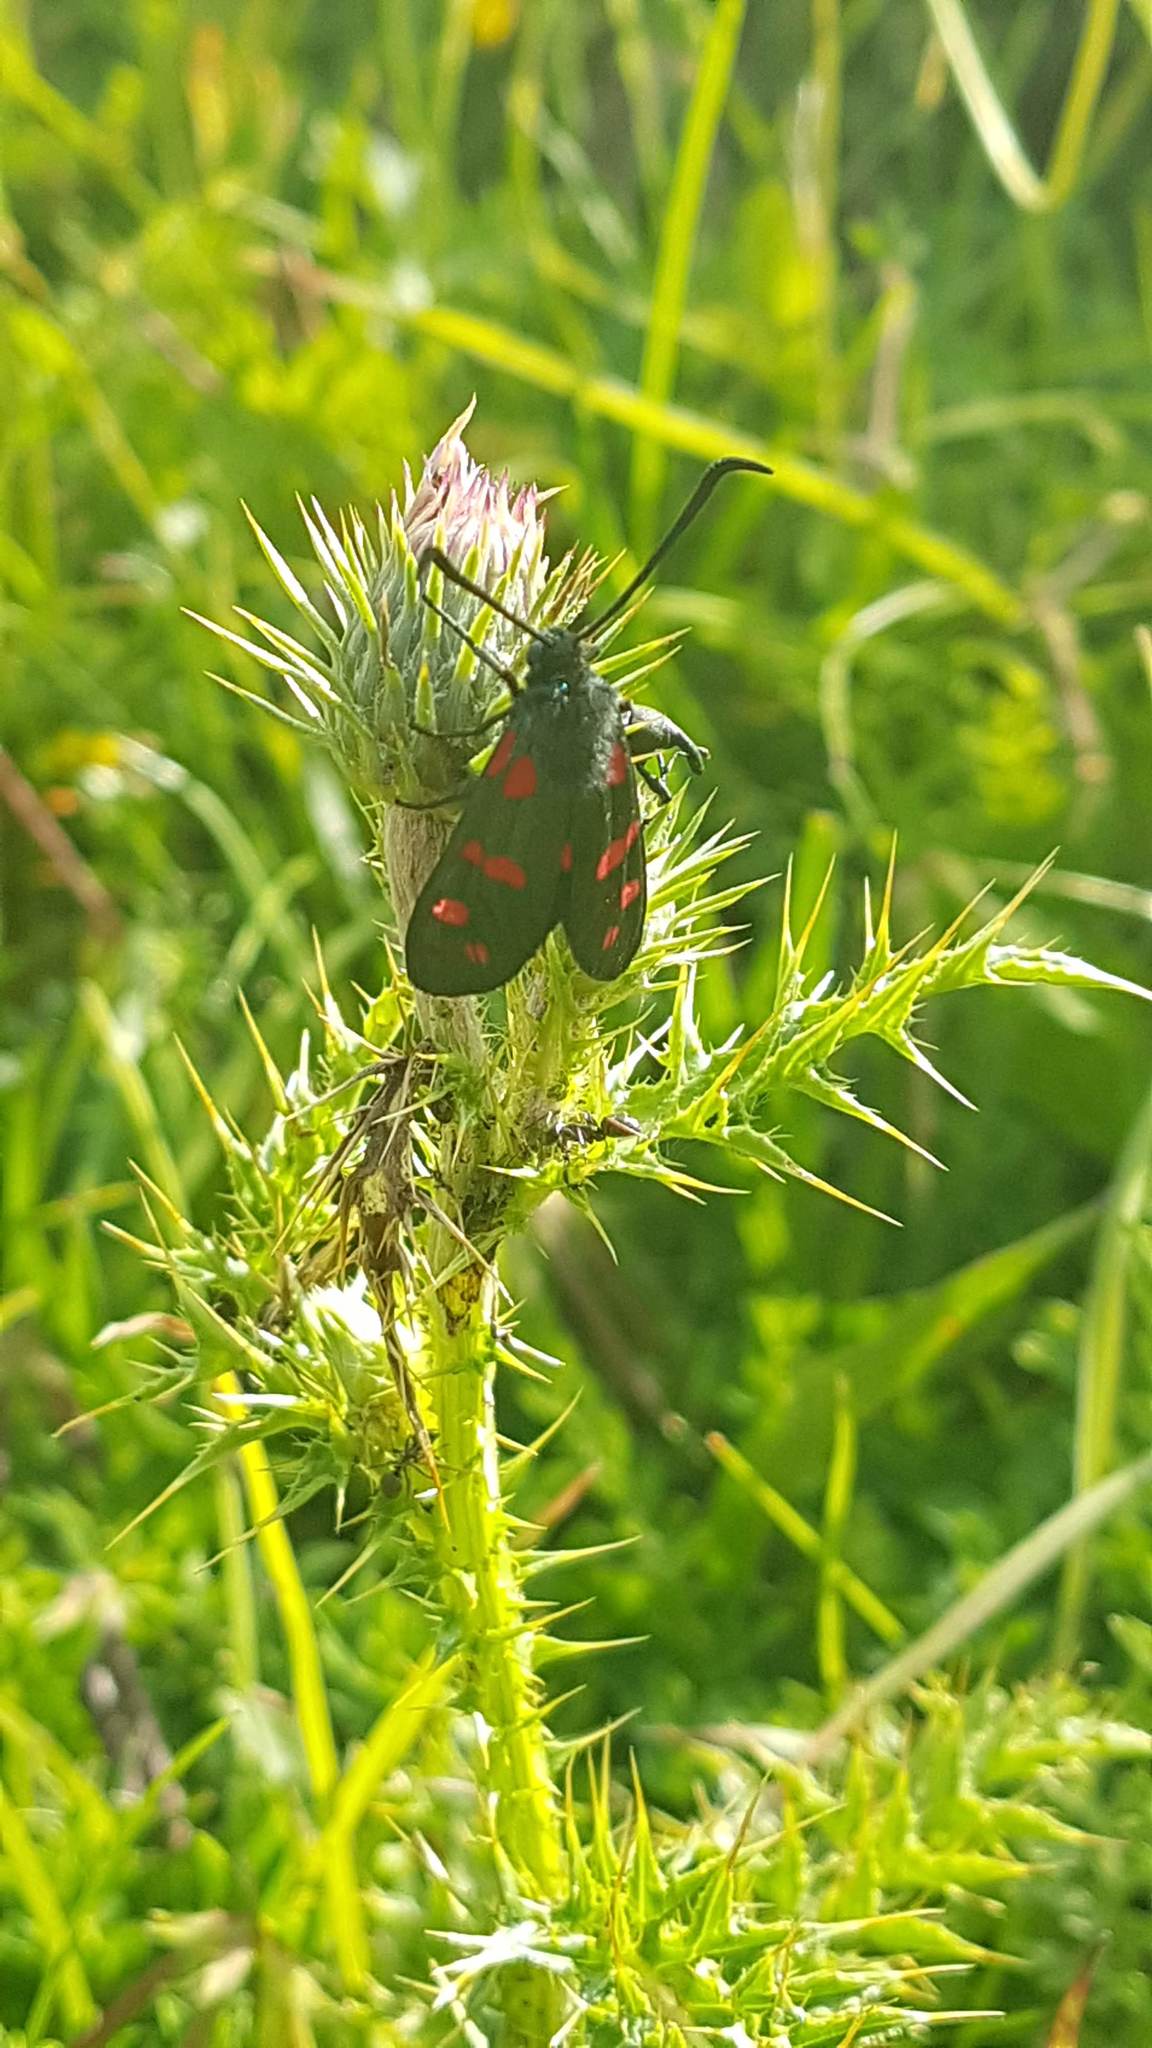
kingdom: Animalia
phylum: Arthropoda
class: Insecta
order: Lepidoptera
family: Zygaenidae
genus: Zygaena
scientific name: Zygaena filipendulae
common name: Six-spot burnet
